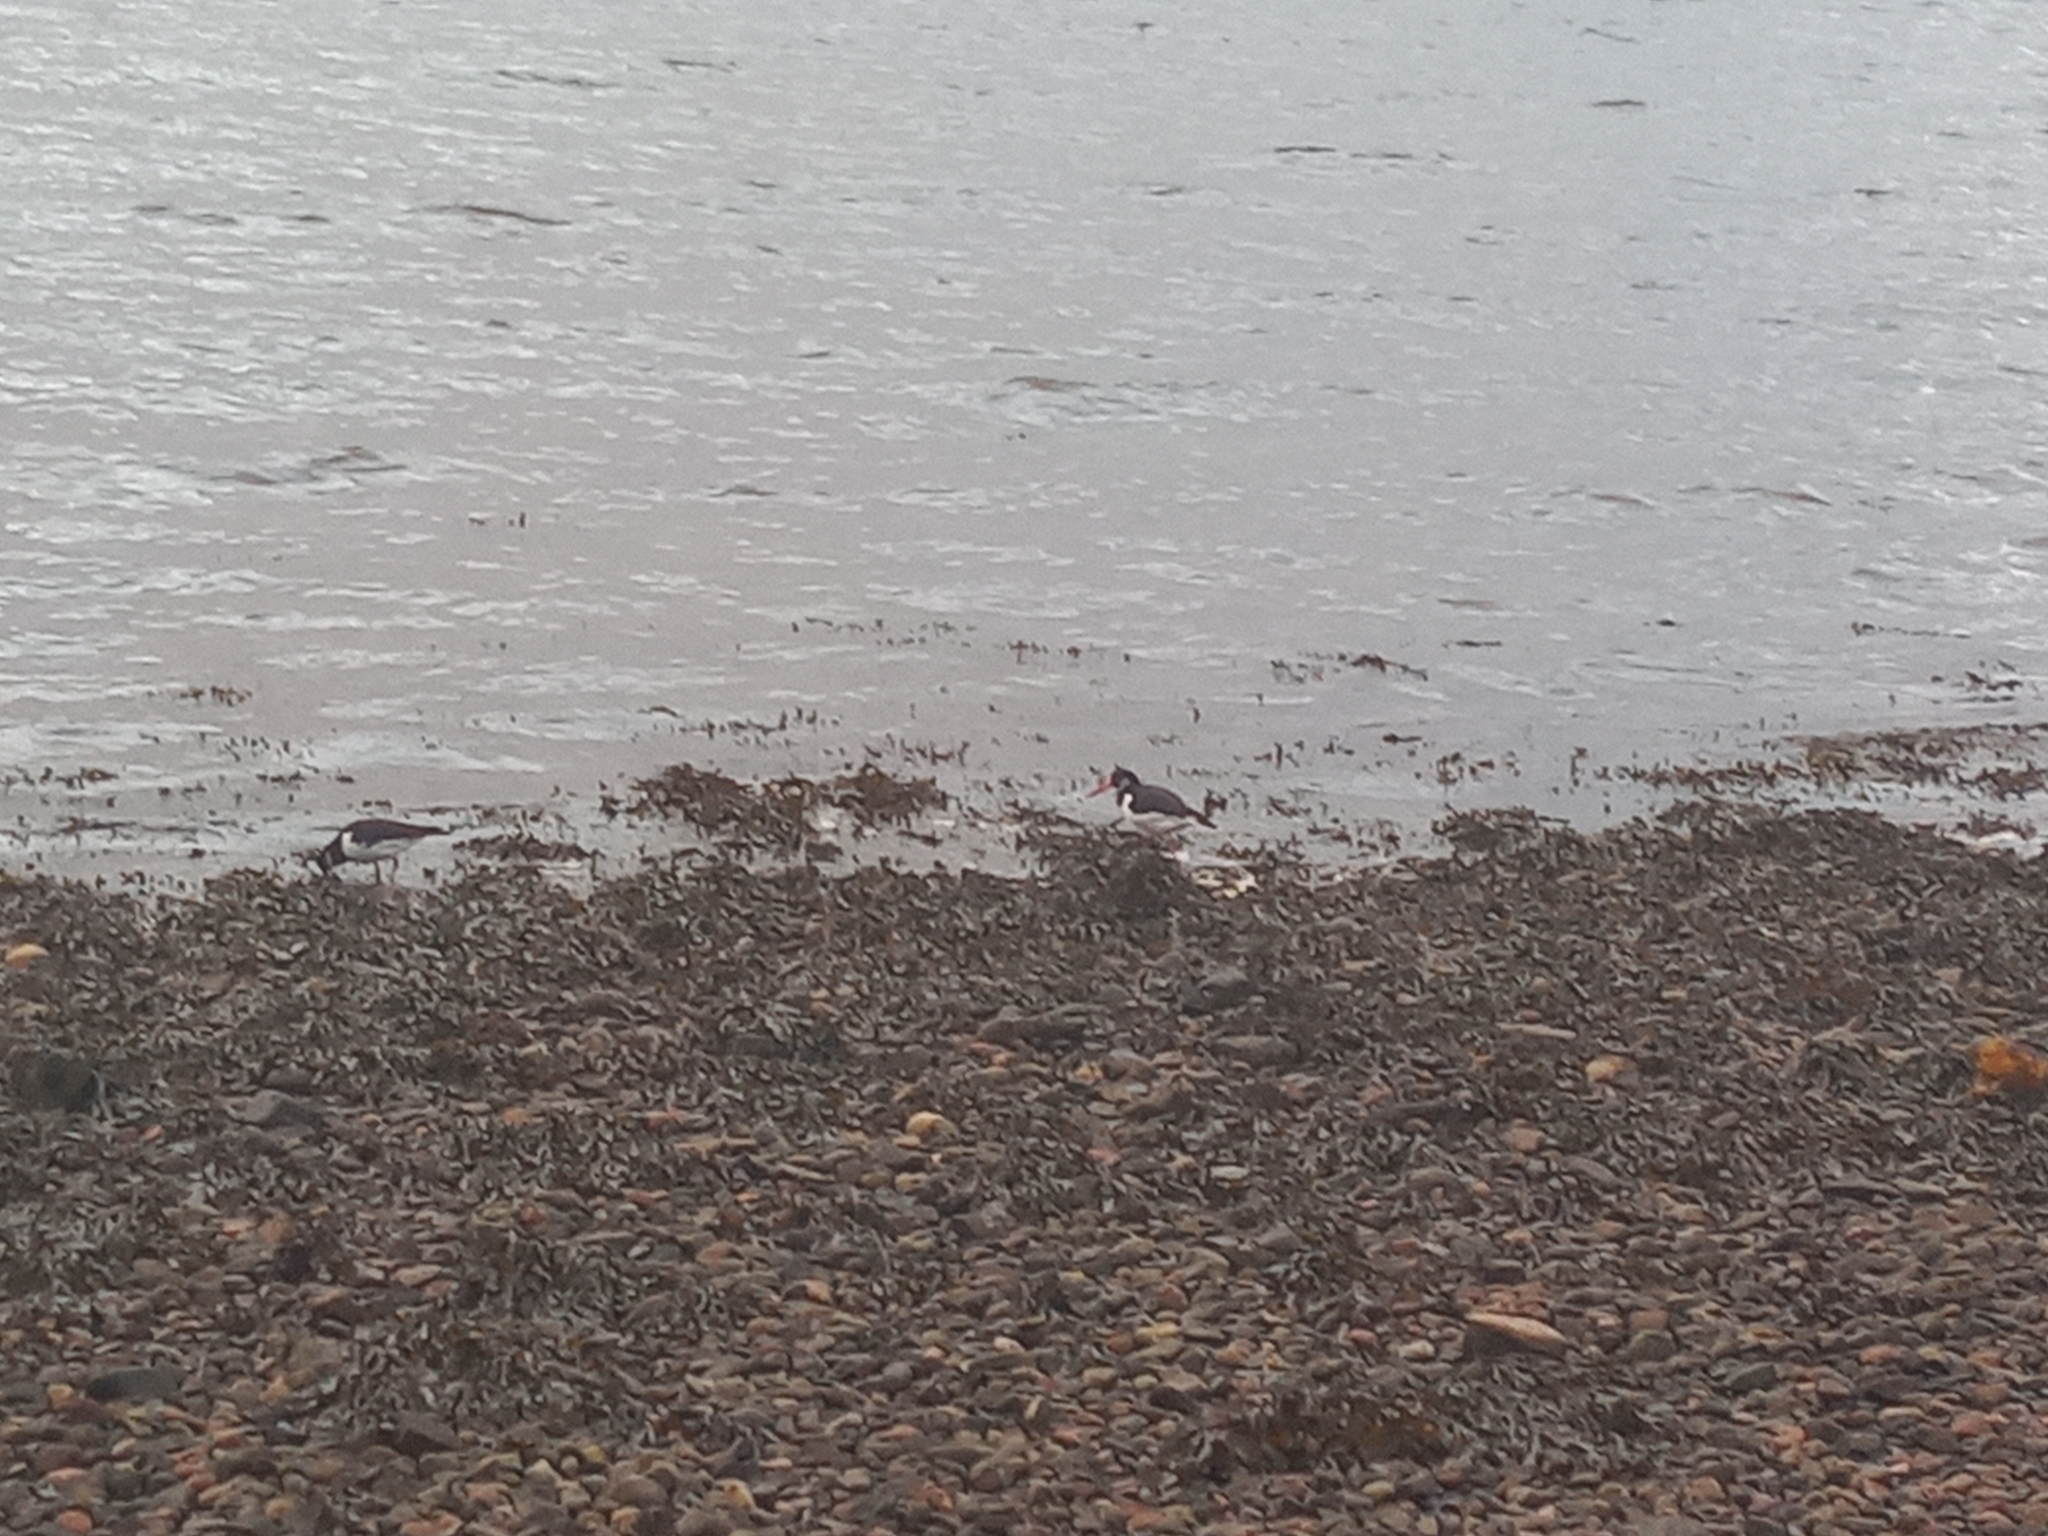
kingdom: Animalia
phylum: Chordata
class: Aves
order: Charadriiformes
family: Haematopodidae
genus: Haematopus
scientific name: Haematopus ostralegus
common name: Eurasian oystercatcher
